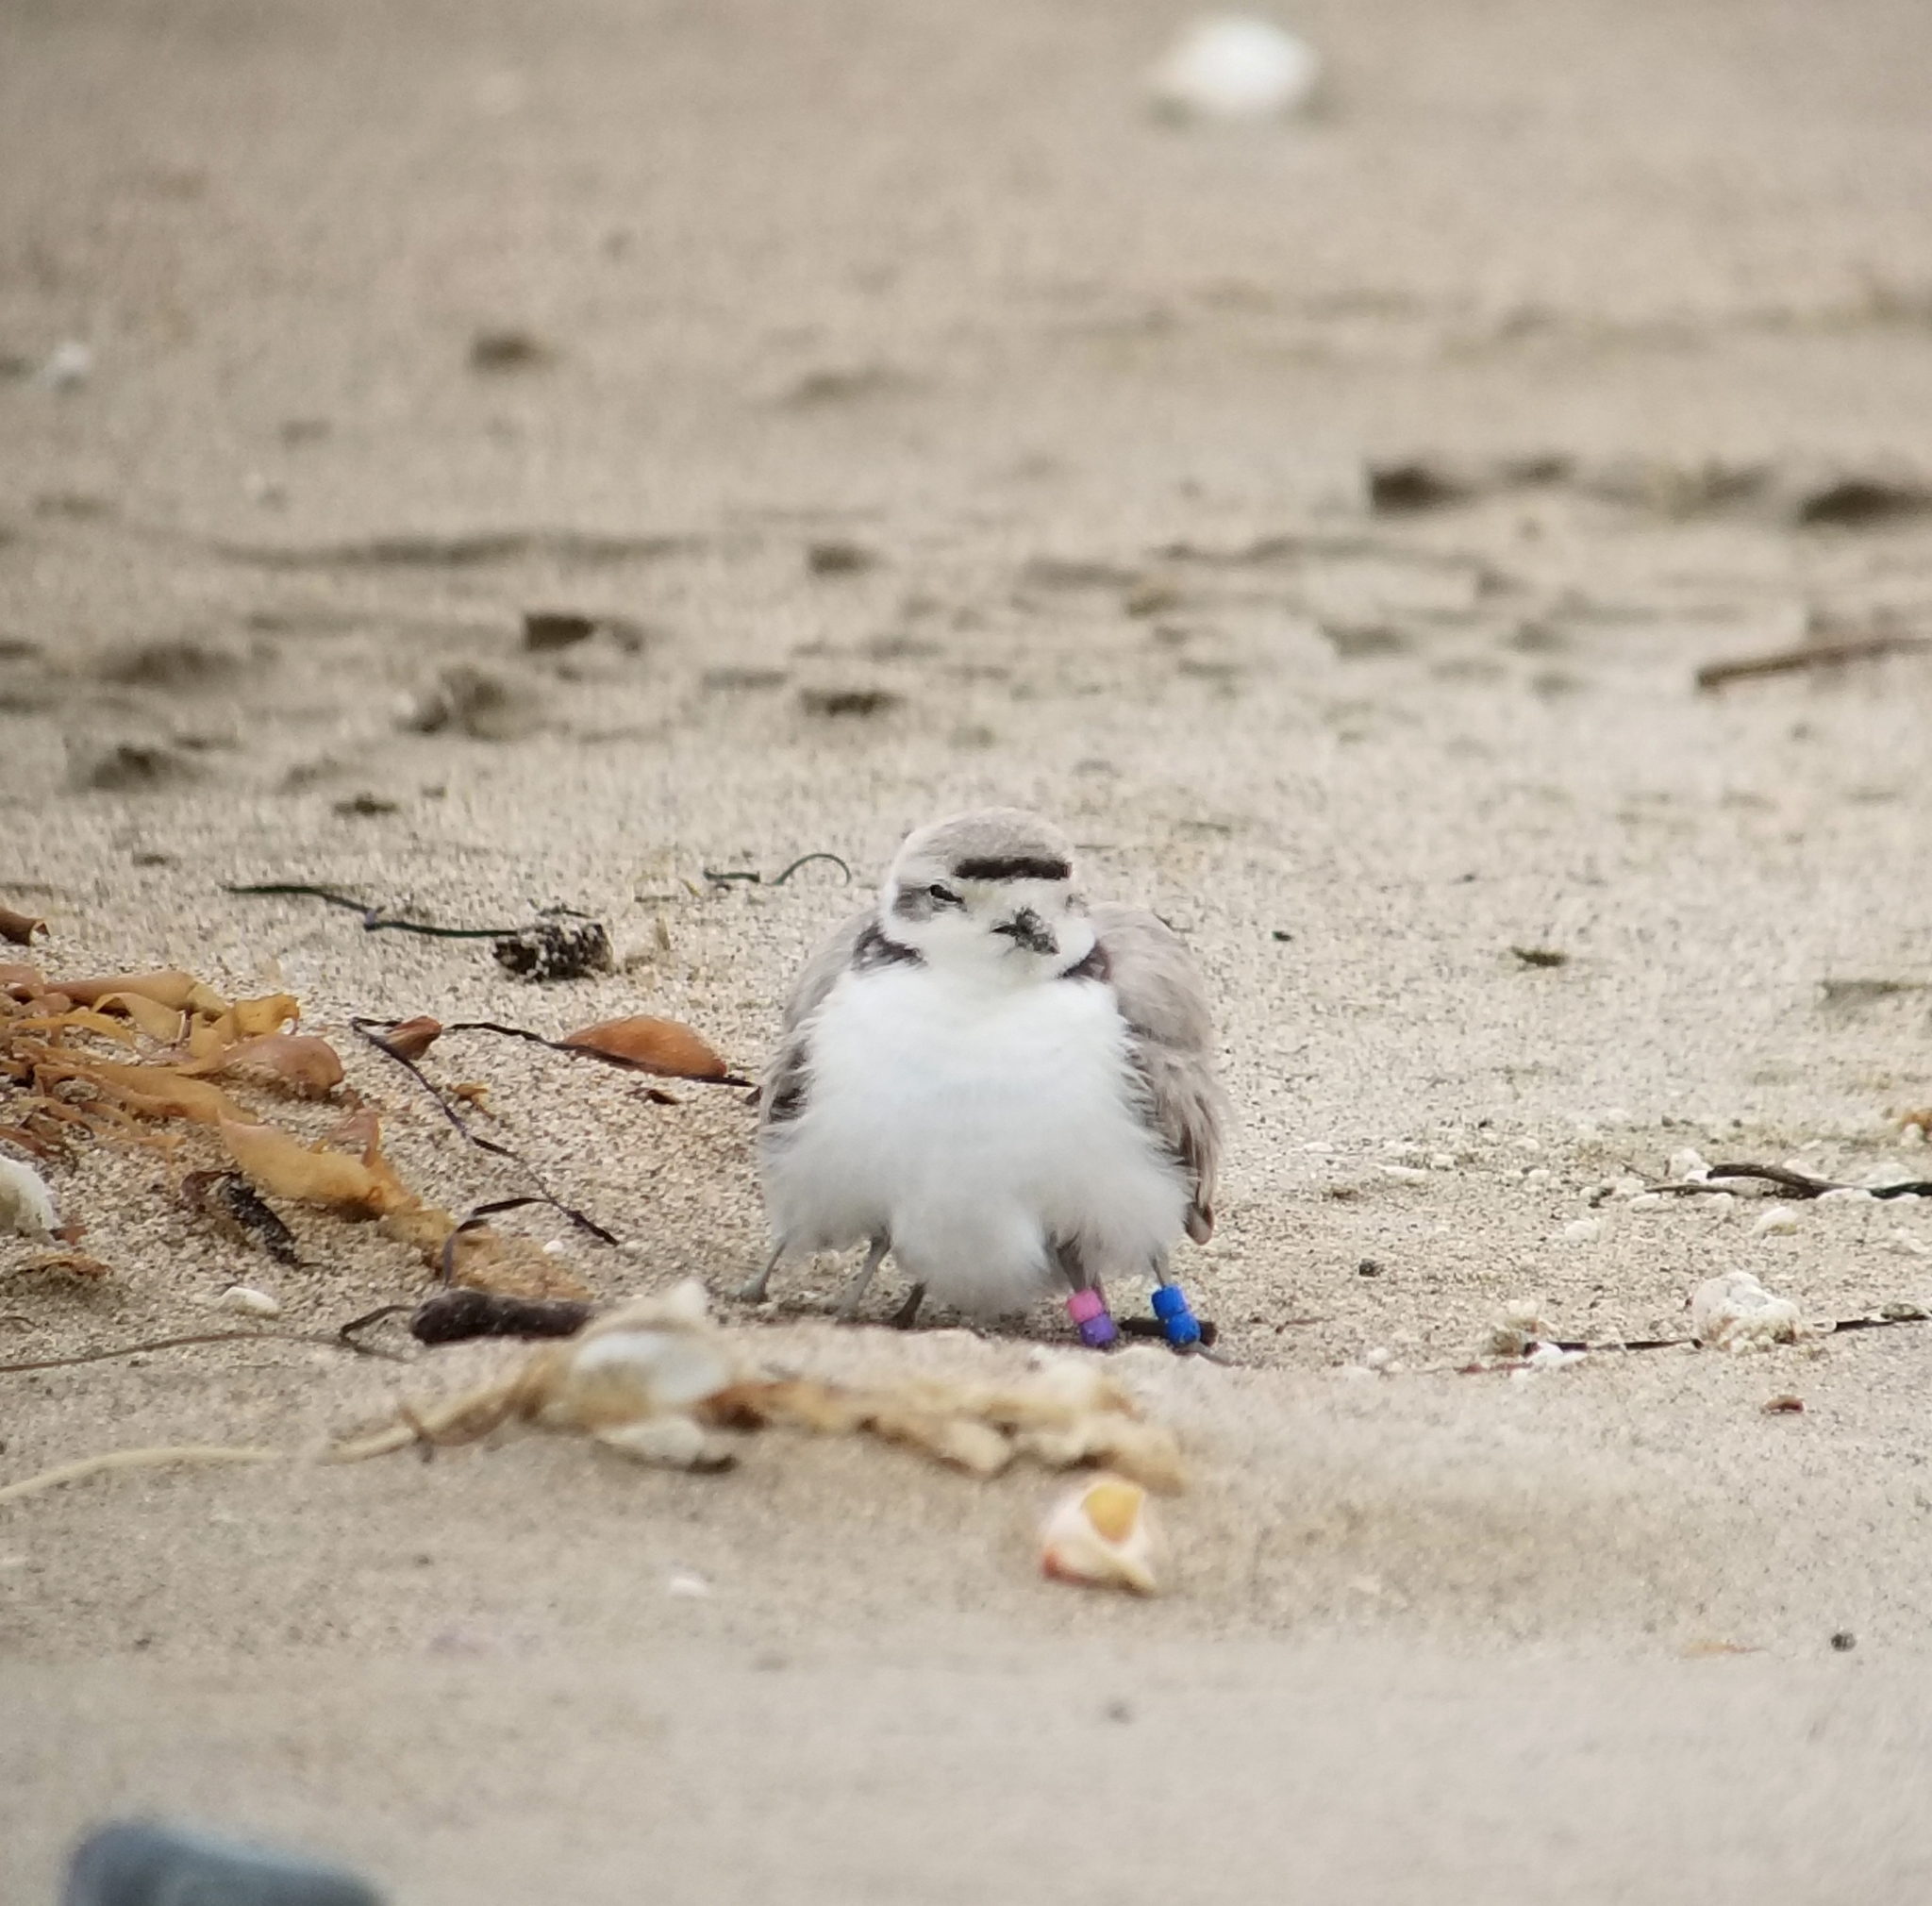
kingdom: Animalia
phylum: Chordata
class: Aves
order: Charadriiformes
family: Charadriidae
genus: Anarhynchus
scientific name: Anarhynchus
